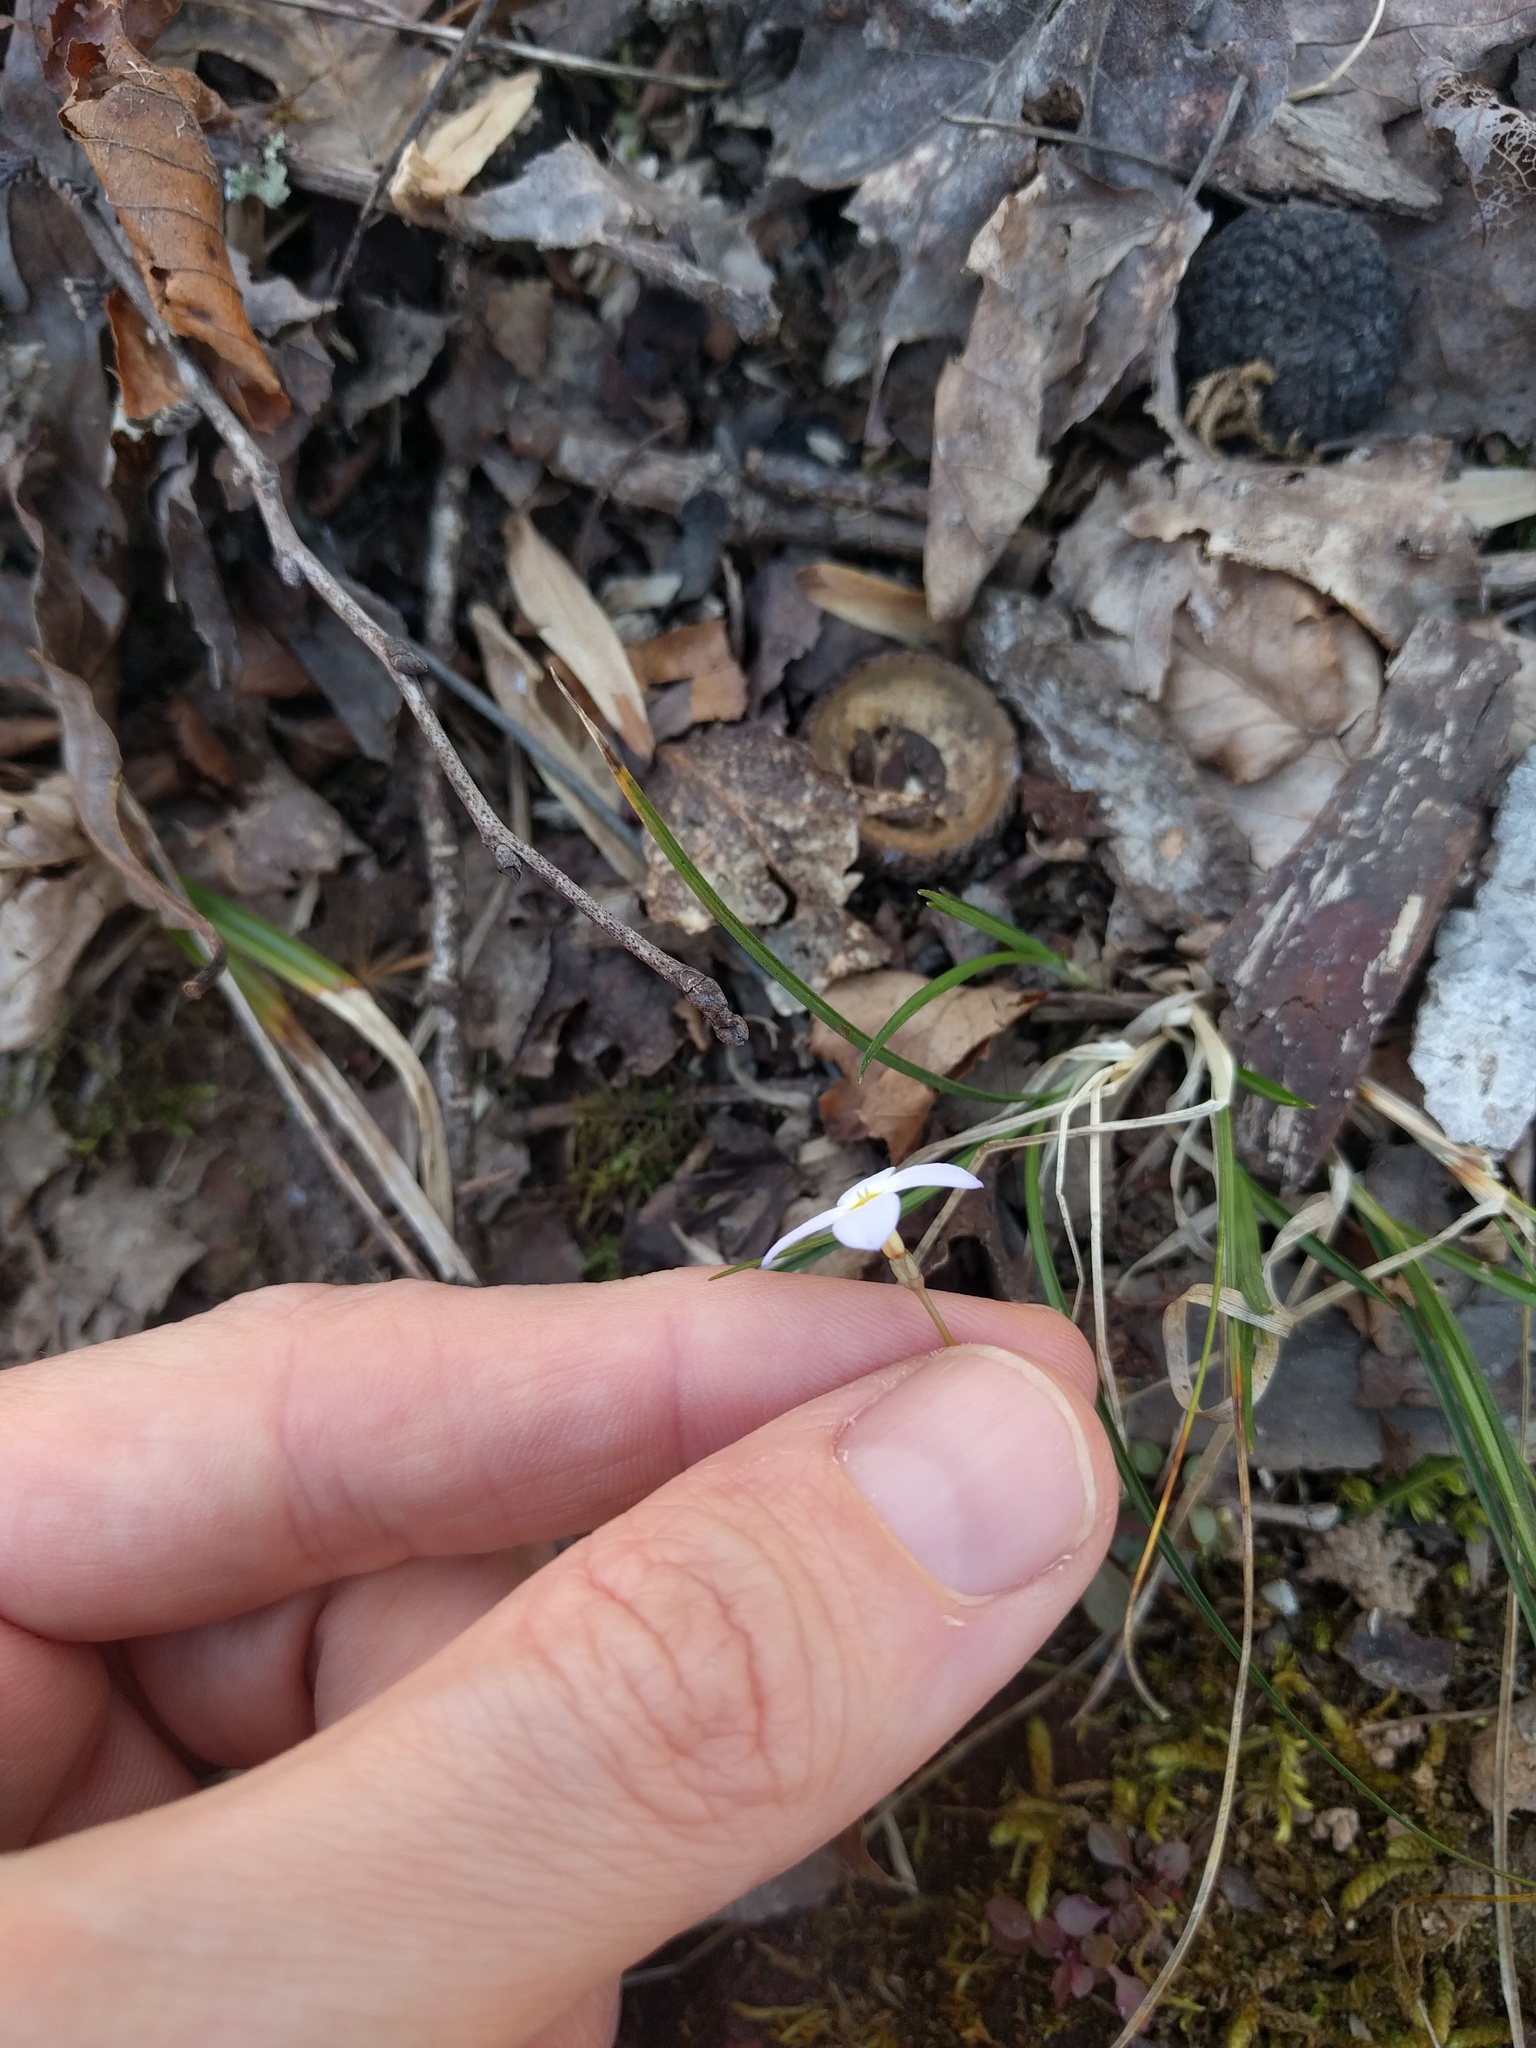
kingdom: Plantae
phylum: Tracheophyta
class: Magnoliopsida
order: Gentianales
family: Rubiaceae
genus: Houstonia
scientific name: Houstonia caerulea
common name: Bluets
